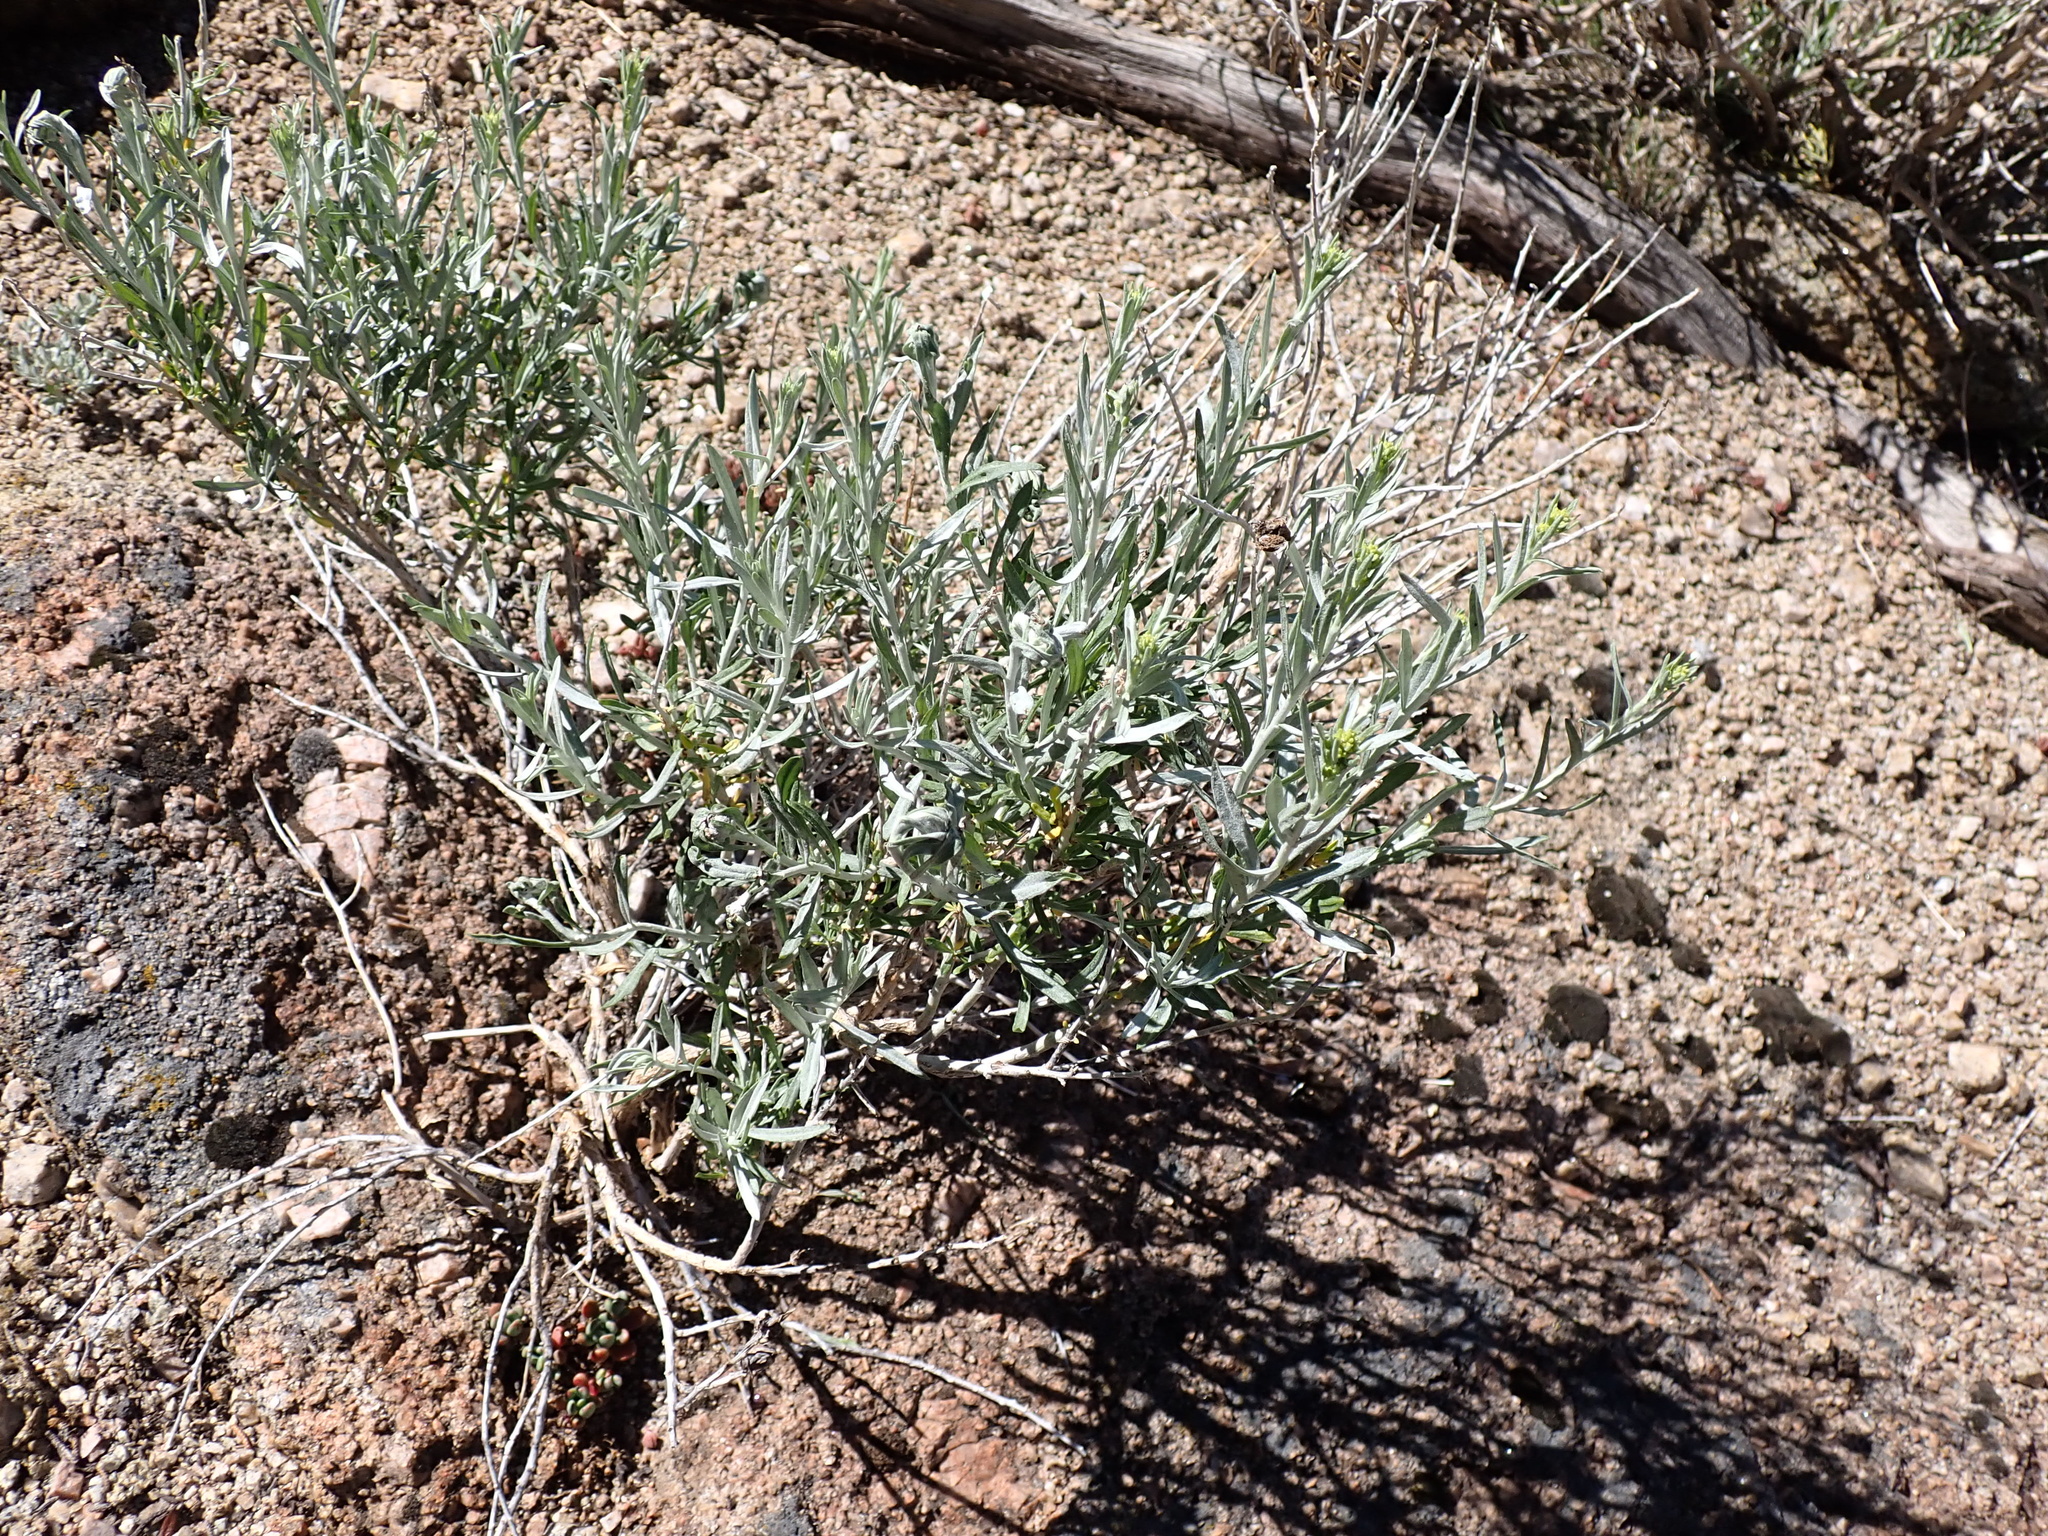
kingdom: Plantae
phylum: Tracheophyta
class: Magnoliopsida
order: Asterales
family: Asteraceae
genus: Ericameria
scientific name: Ericameria nauseosa
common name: Rubber rabbitbrush
